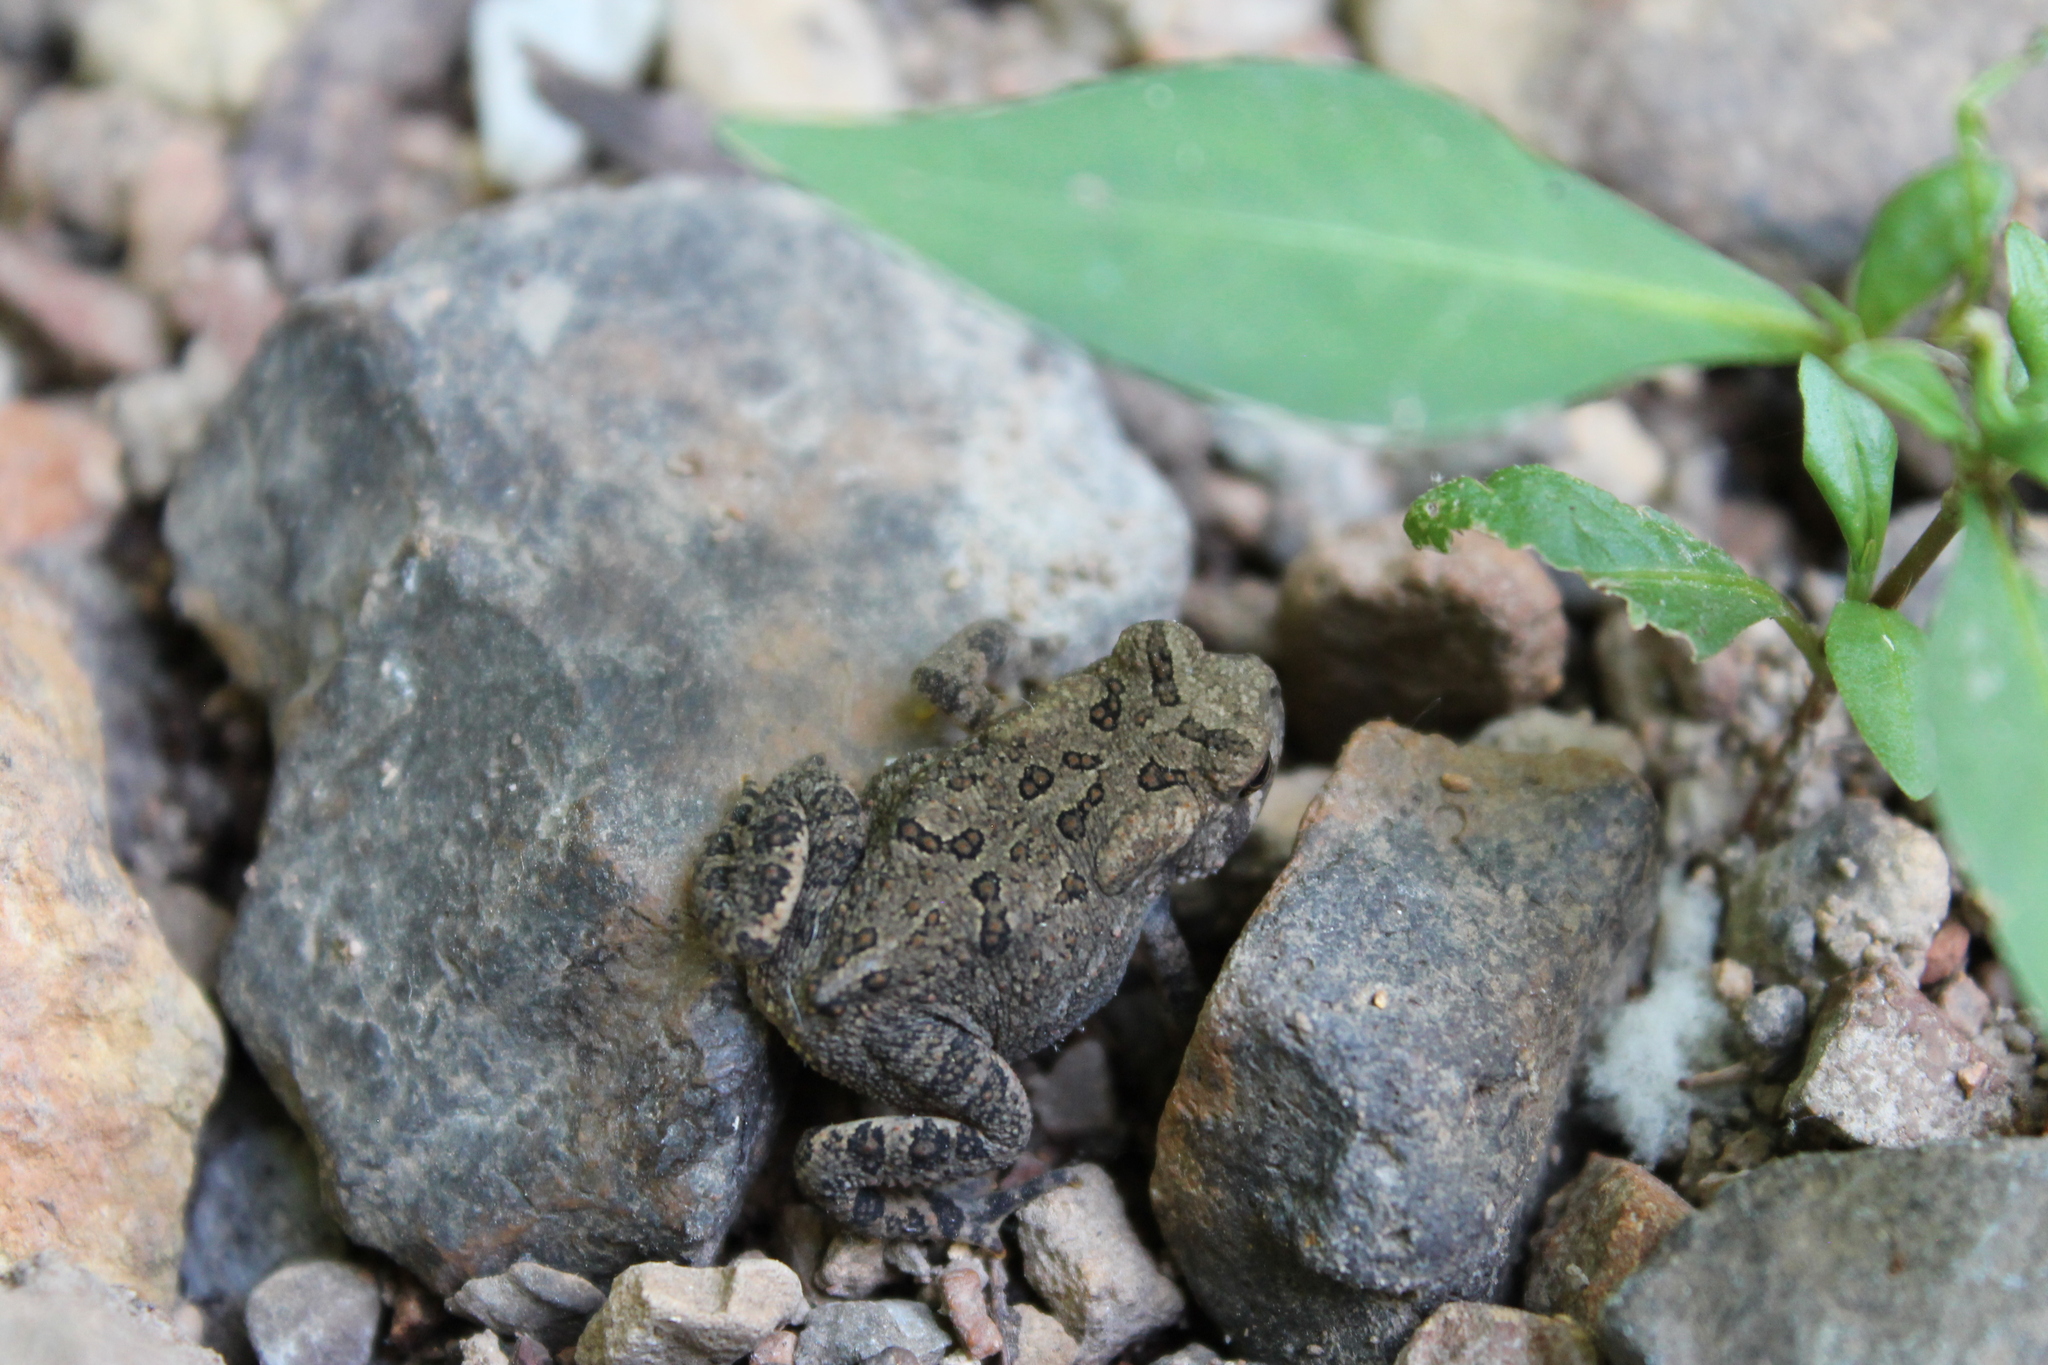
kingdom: Animalia
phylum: Chordata
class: Amphibia
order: Anura
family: Bufonidae
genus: Anaxyrus
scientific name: Anaxyrus americanus
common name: American toad
